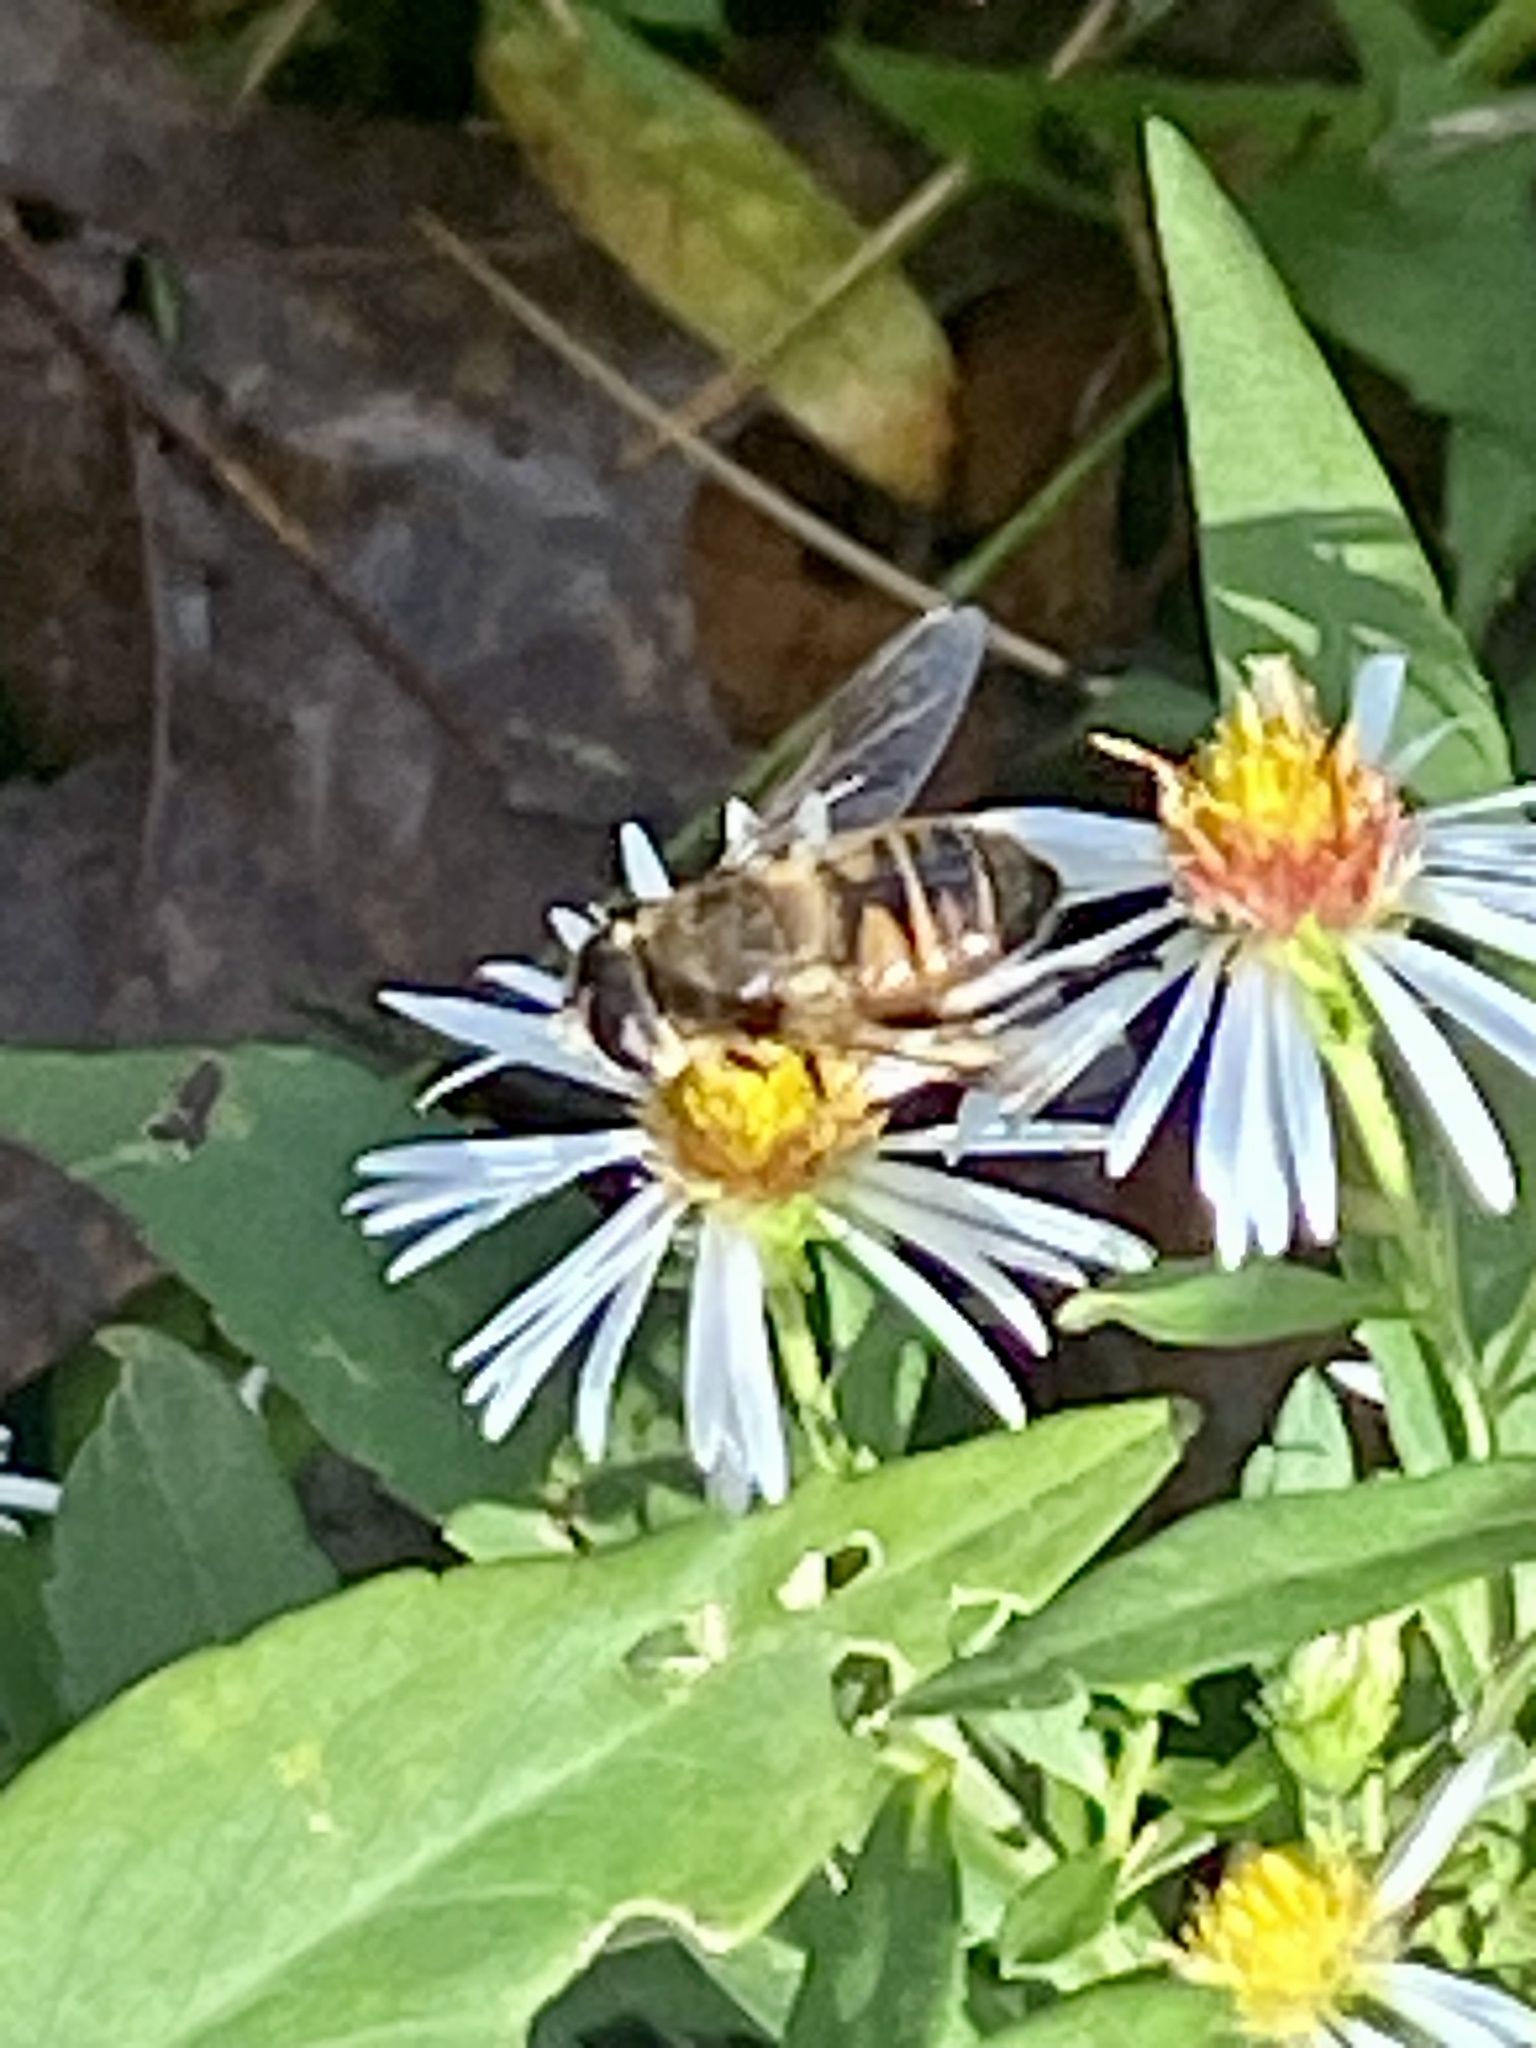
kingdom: Animalia
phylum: Arthropoda
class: Insecta
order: Diptera
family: Syrphidae
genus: Eristalis
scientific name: Eristalis tenax
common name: Drone fly
